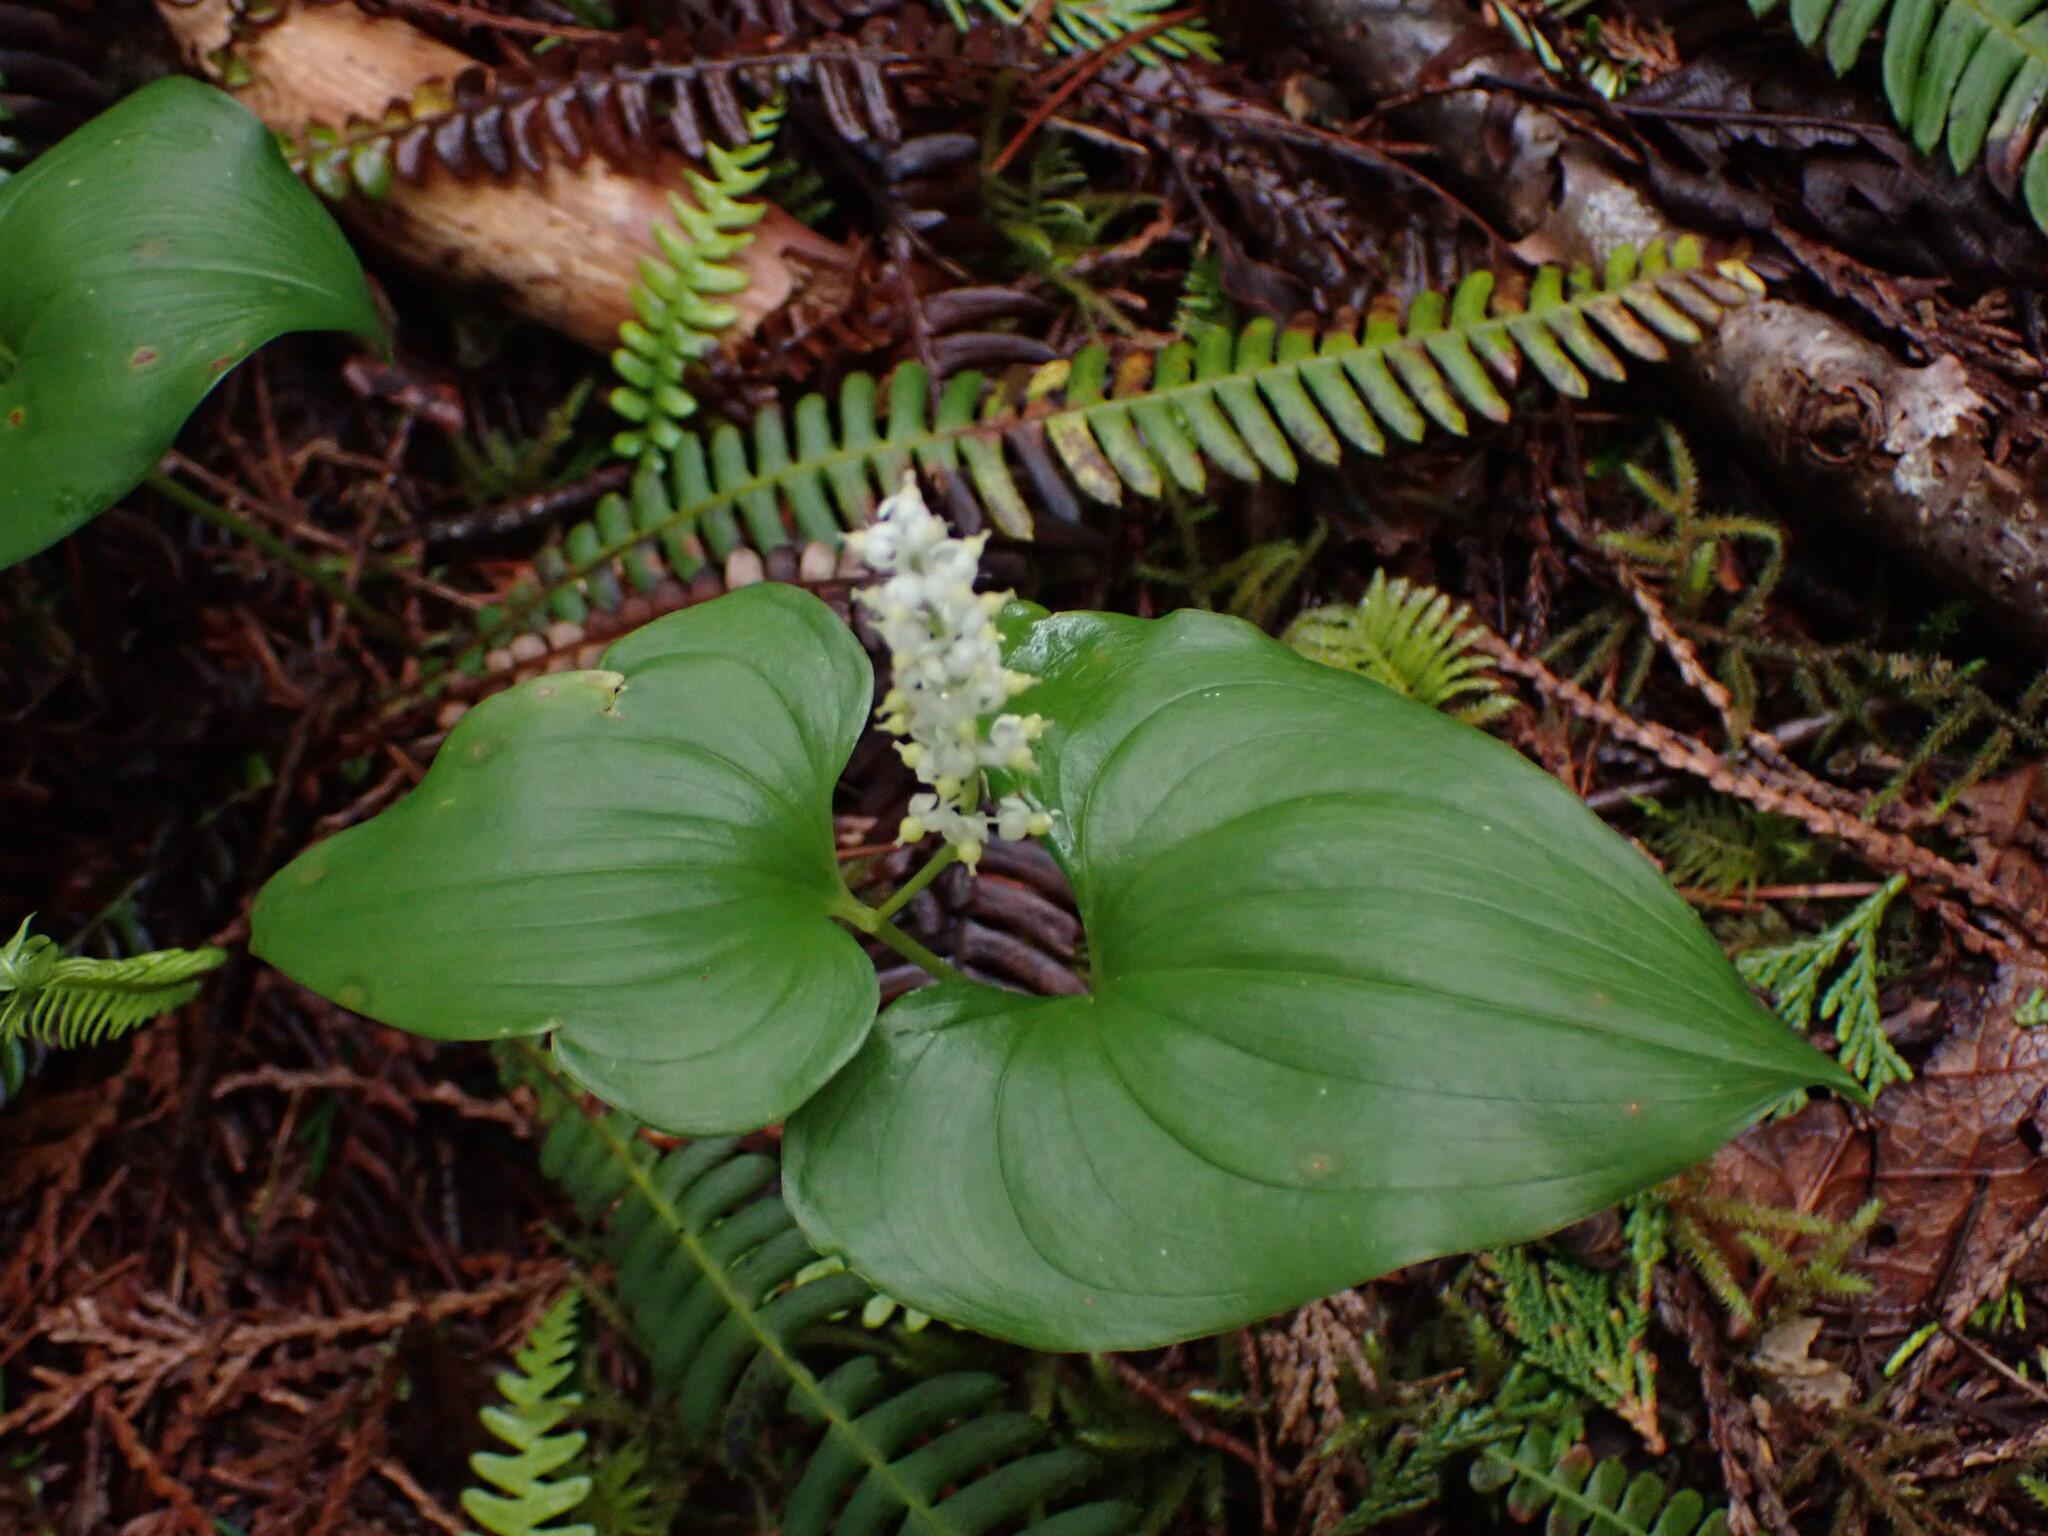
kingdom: Plantae
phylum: Tracheophyta
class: Liliopsida
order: Asparagales
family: Asparagaceae
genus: Maianthemum
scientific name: Maianthemum dilatatum
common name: False lily-of-the-valley
